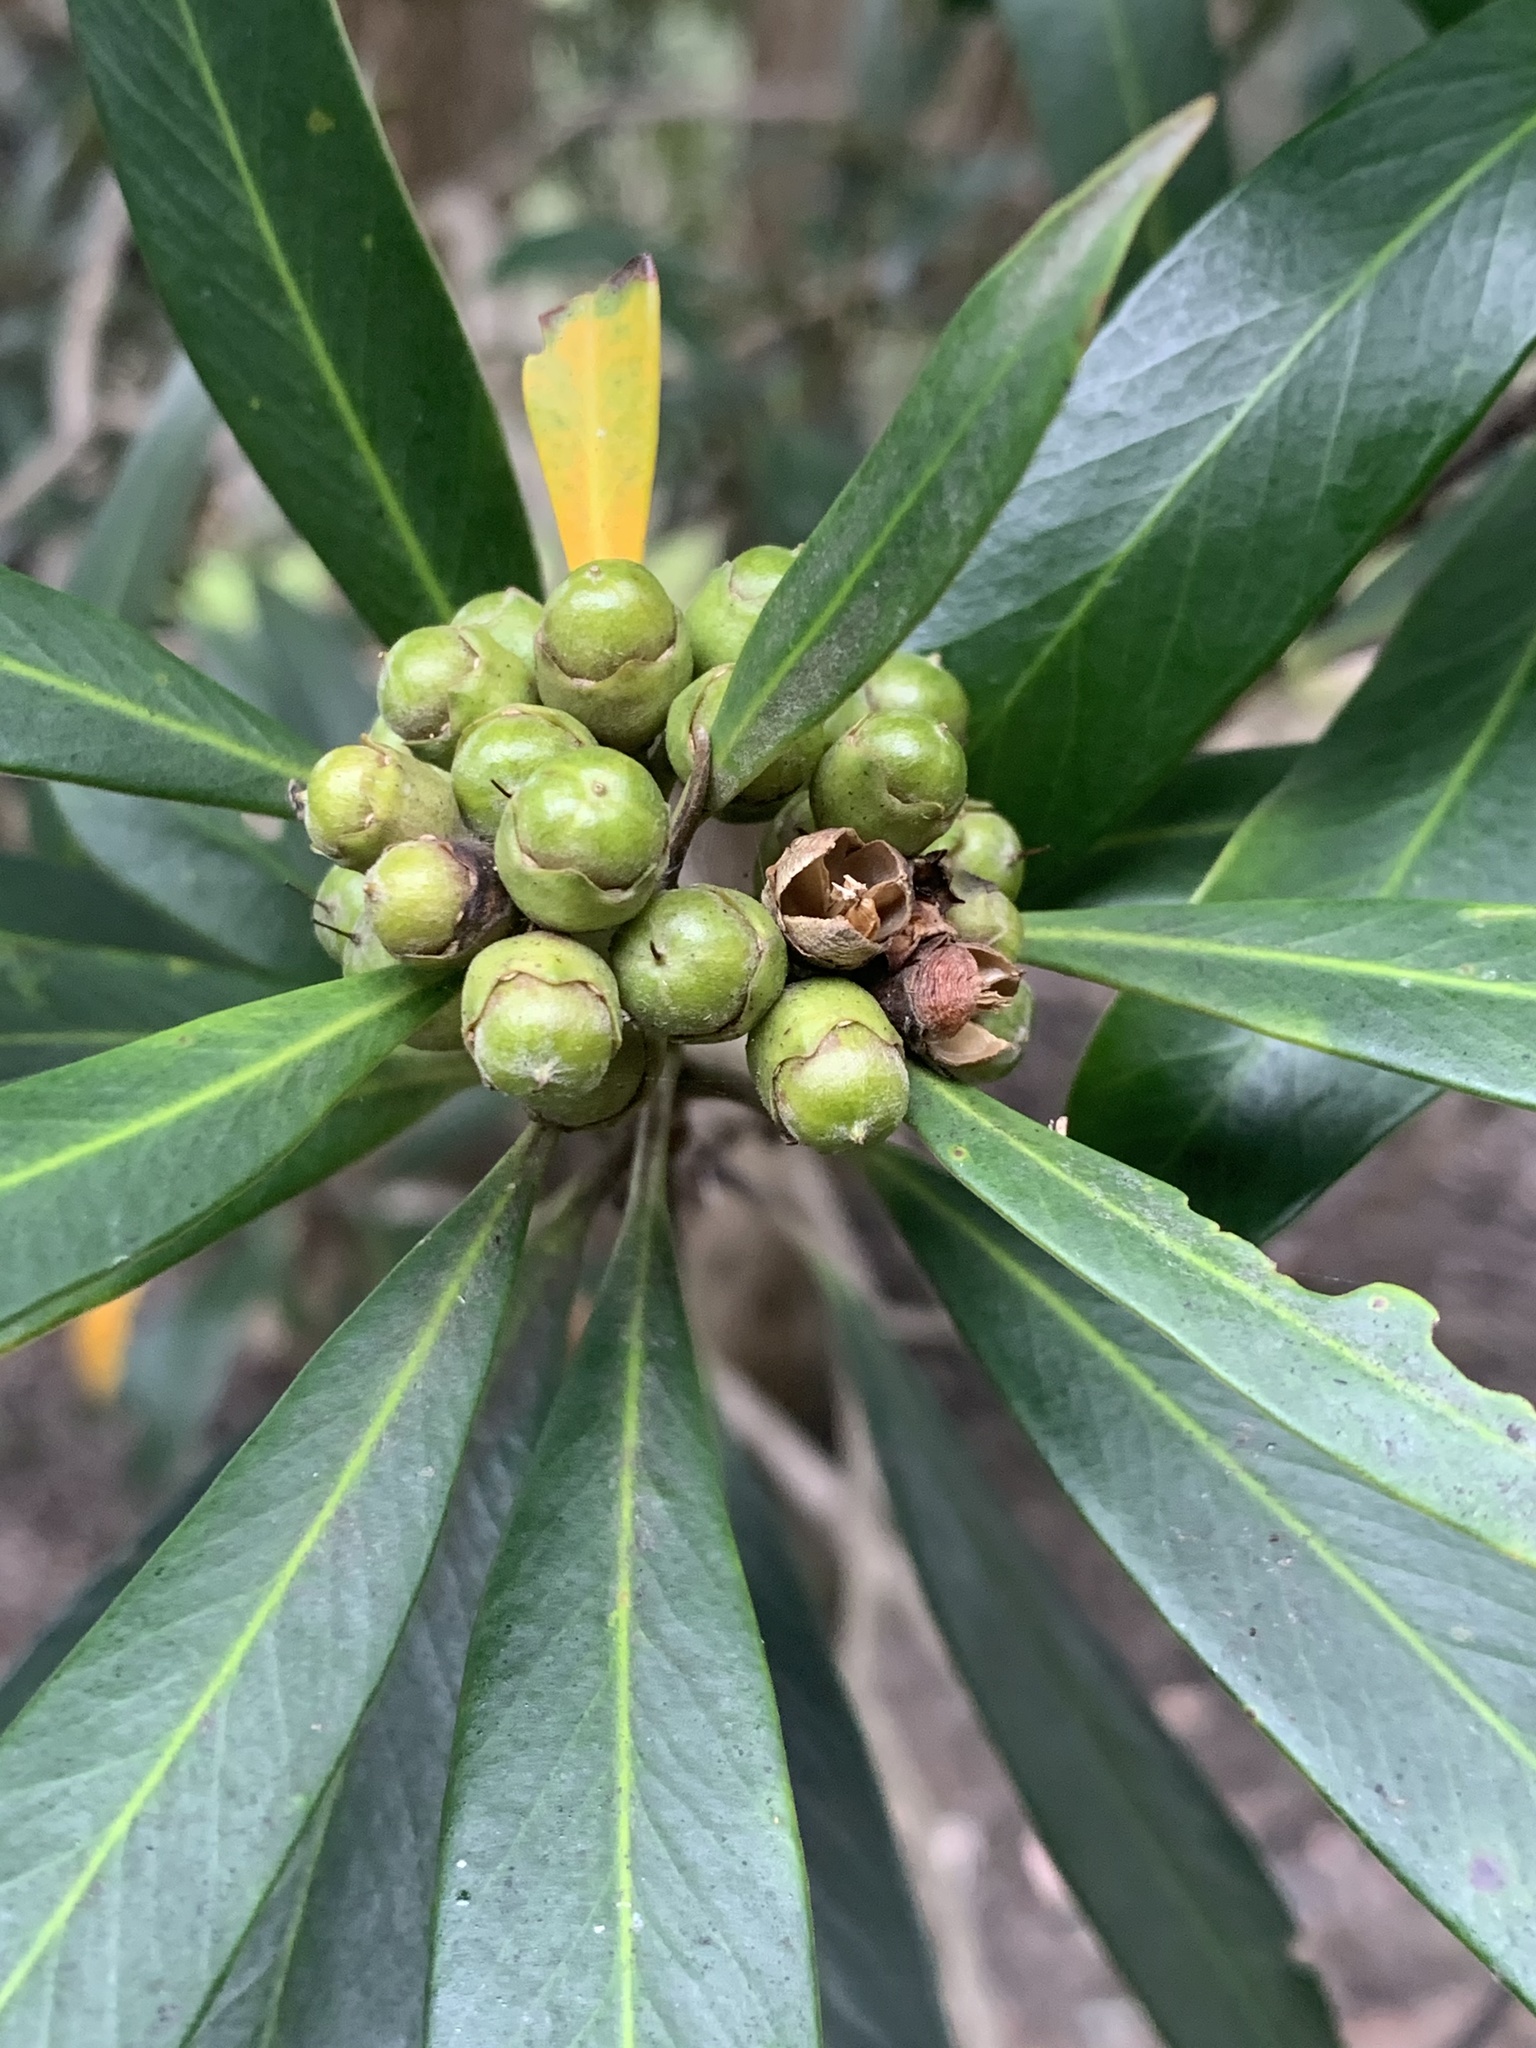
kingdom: Plantae
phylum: Tracheophyta
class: Magnoliopsida
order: Myrtales
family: Myrtaceae
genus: Tristaniopsis
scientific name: Tristaniopsis laurina
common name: Water-gum
